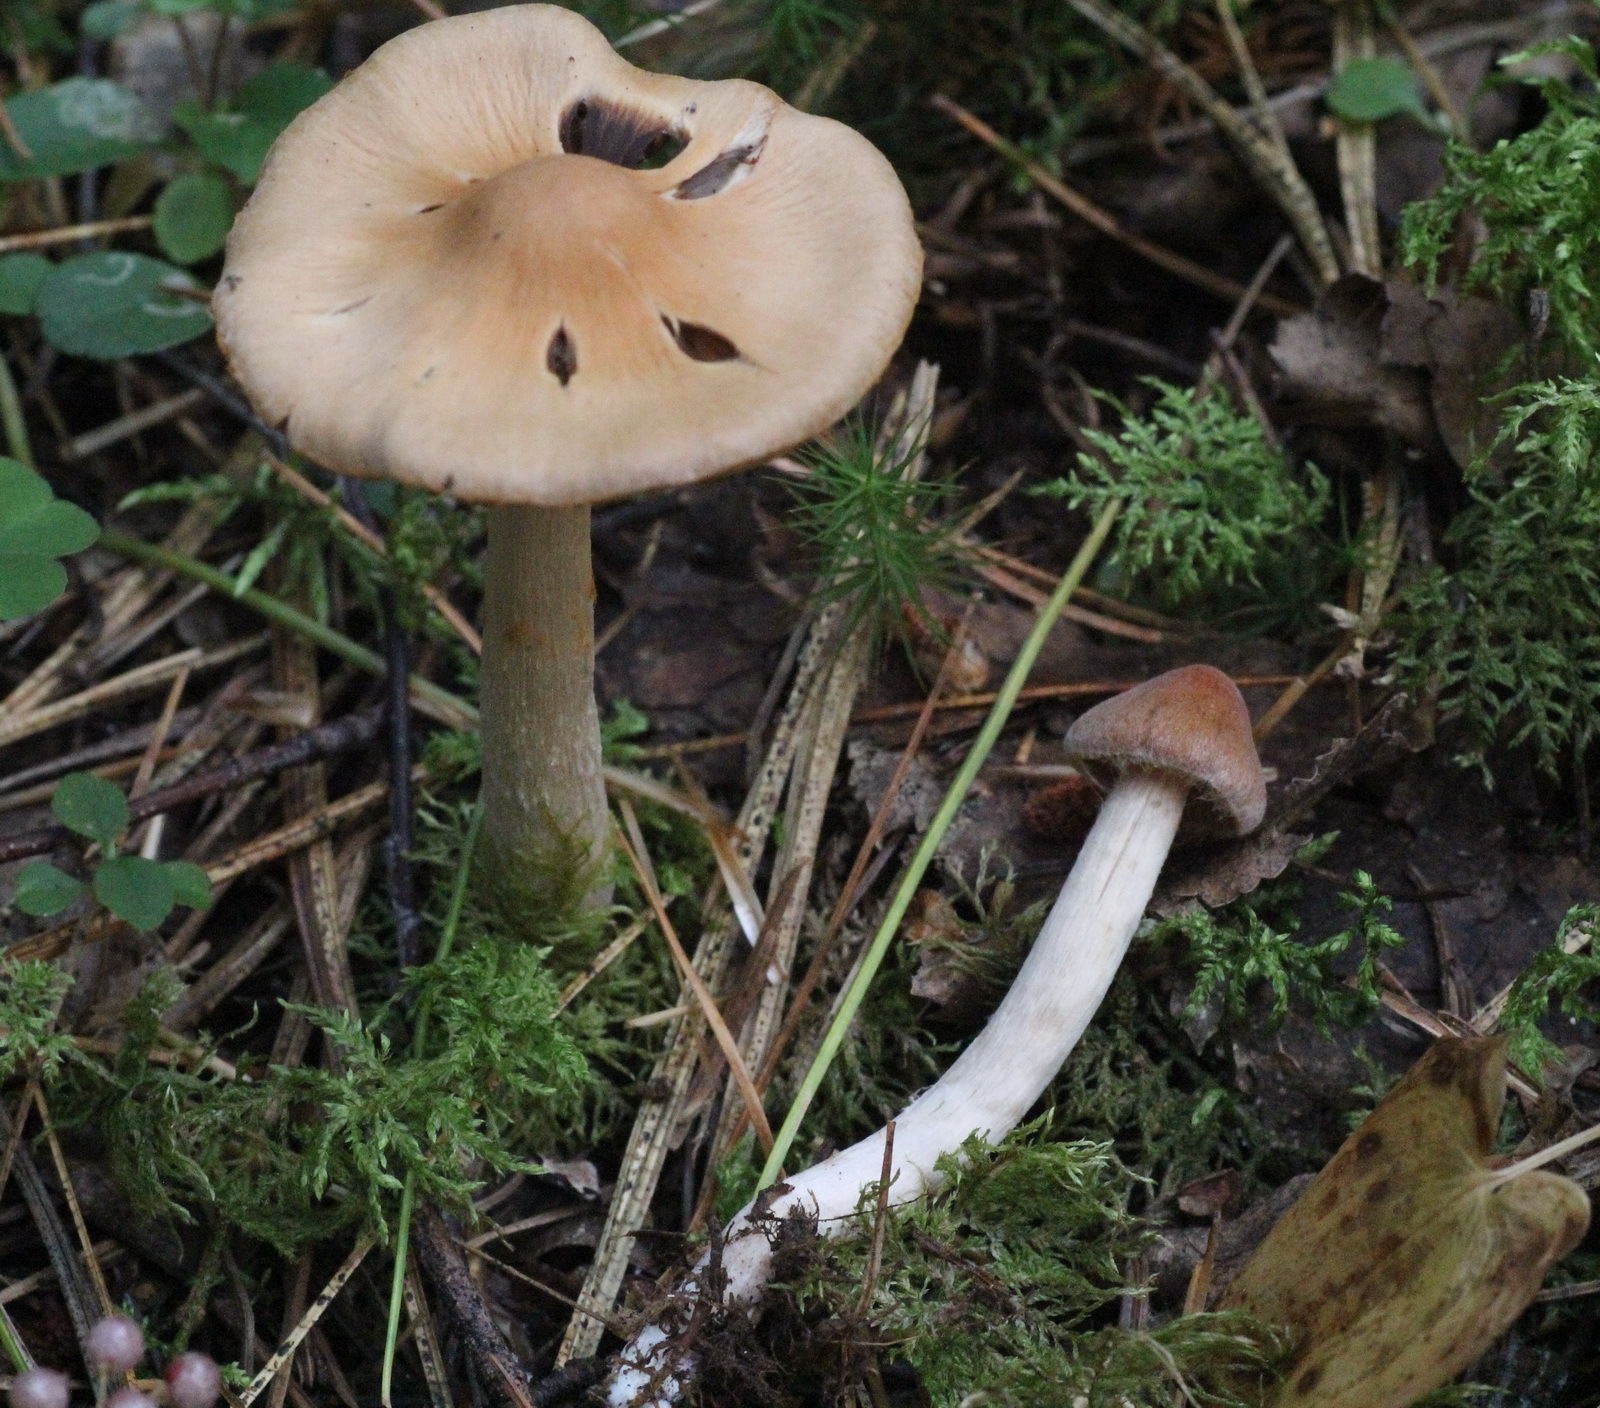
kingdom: Fungi
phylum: Basidiomycota
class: Agaricomycetes
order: Agaricales
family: Cortinariaceae
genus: Cortinarius
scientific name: Cortinarius obtusus
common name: Blunt webcap
